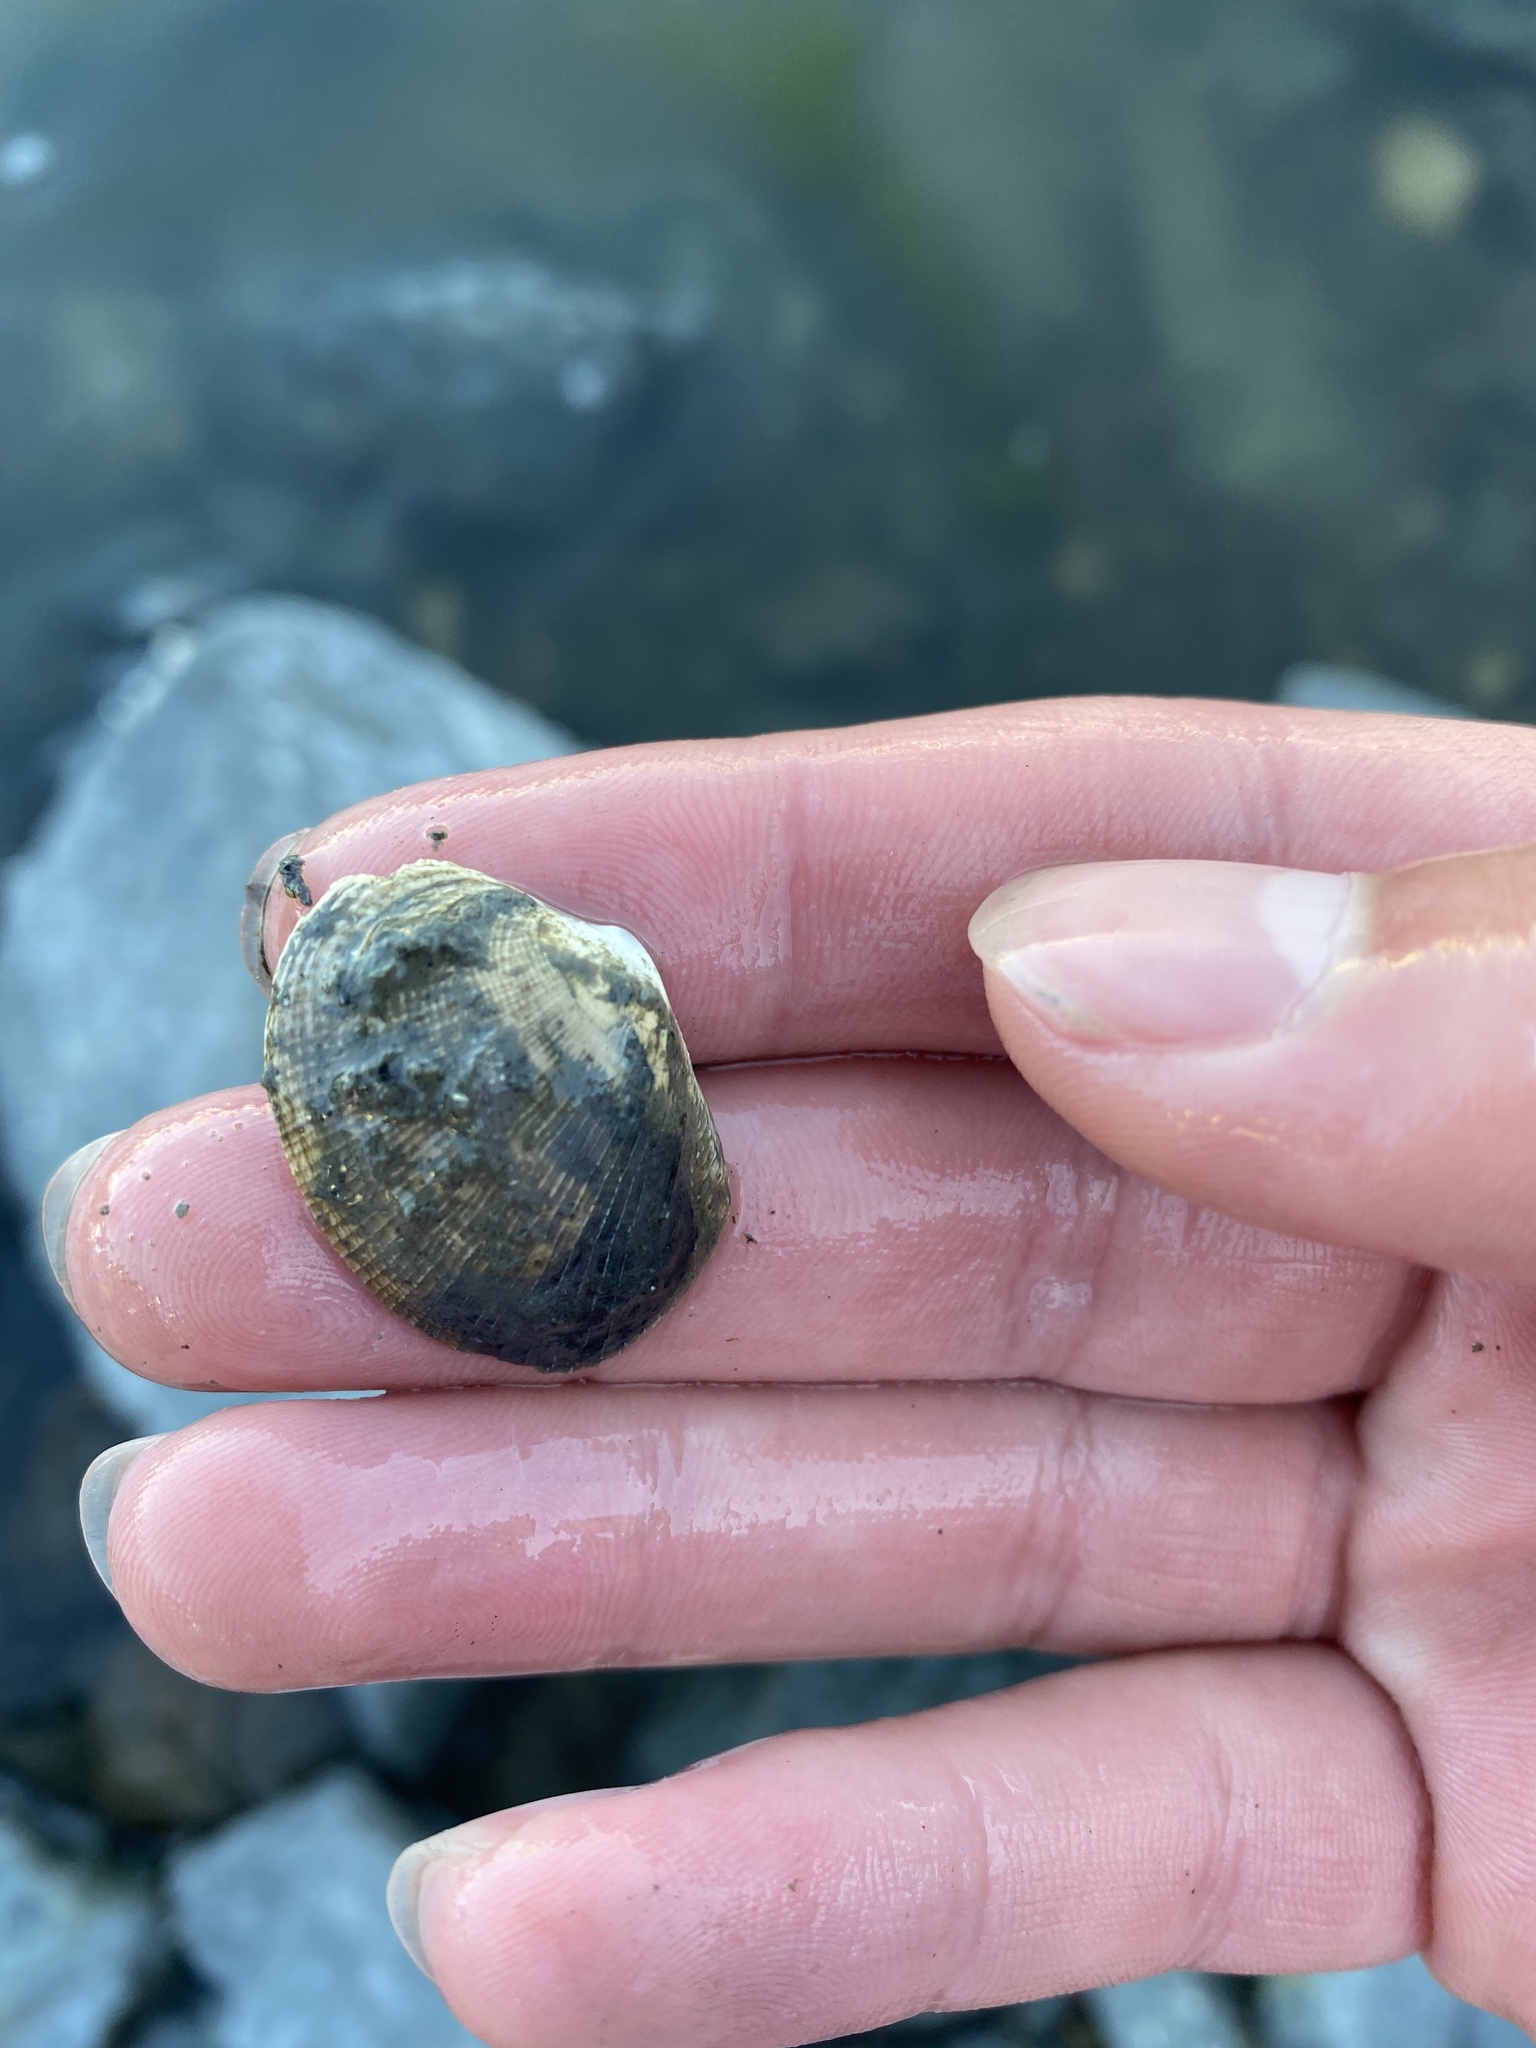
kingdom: Animalia
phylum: Mollusca
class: Bivalvia
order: Venerida
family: Veneridae
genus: Ruditapes
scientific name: Ruditapes philippinarum
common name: Manila clam
